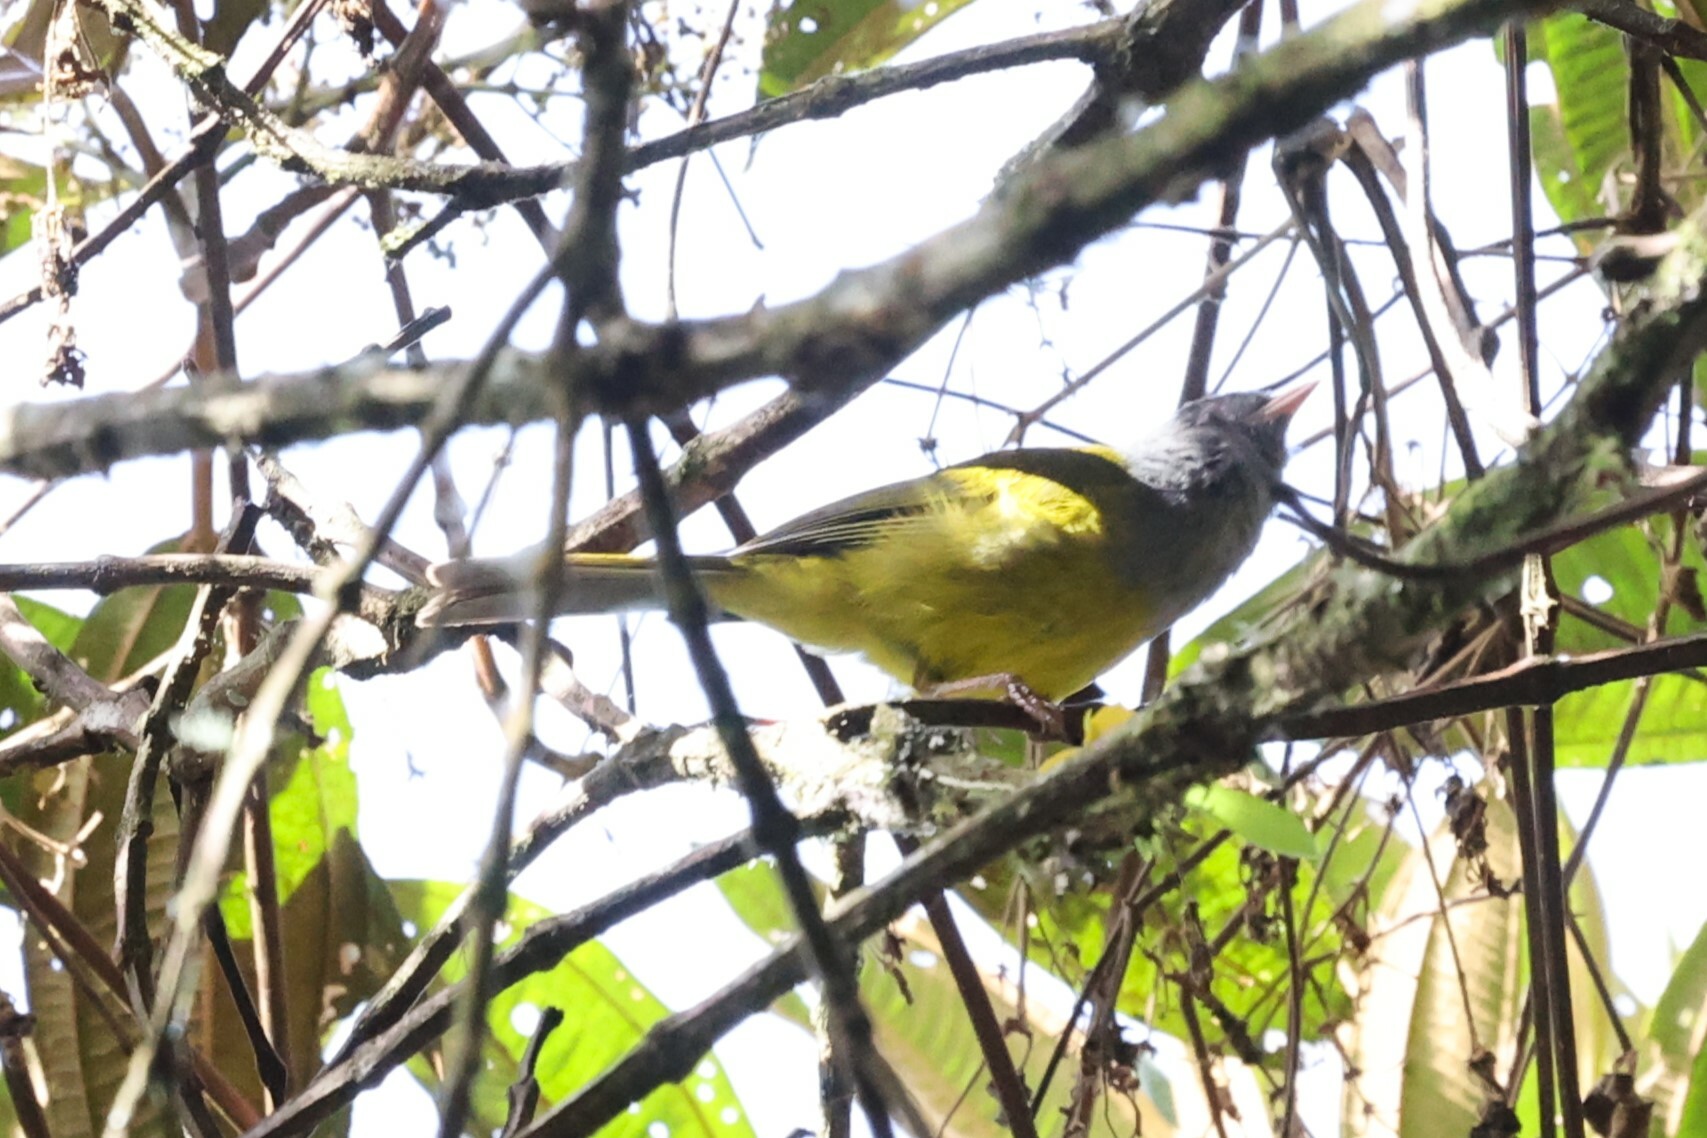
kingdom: Animalia
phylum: Chordata
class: Aves
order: Passeriformes
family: Thraupidae
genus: Cnemoscopus
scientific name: Cnemoscopus rubrirostris
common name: Grey-hooded bush tanager
